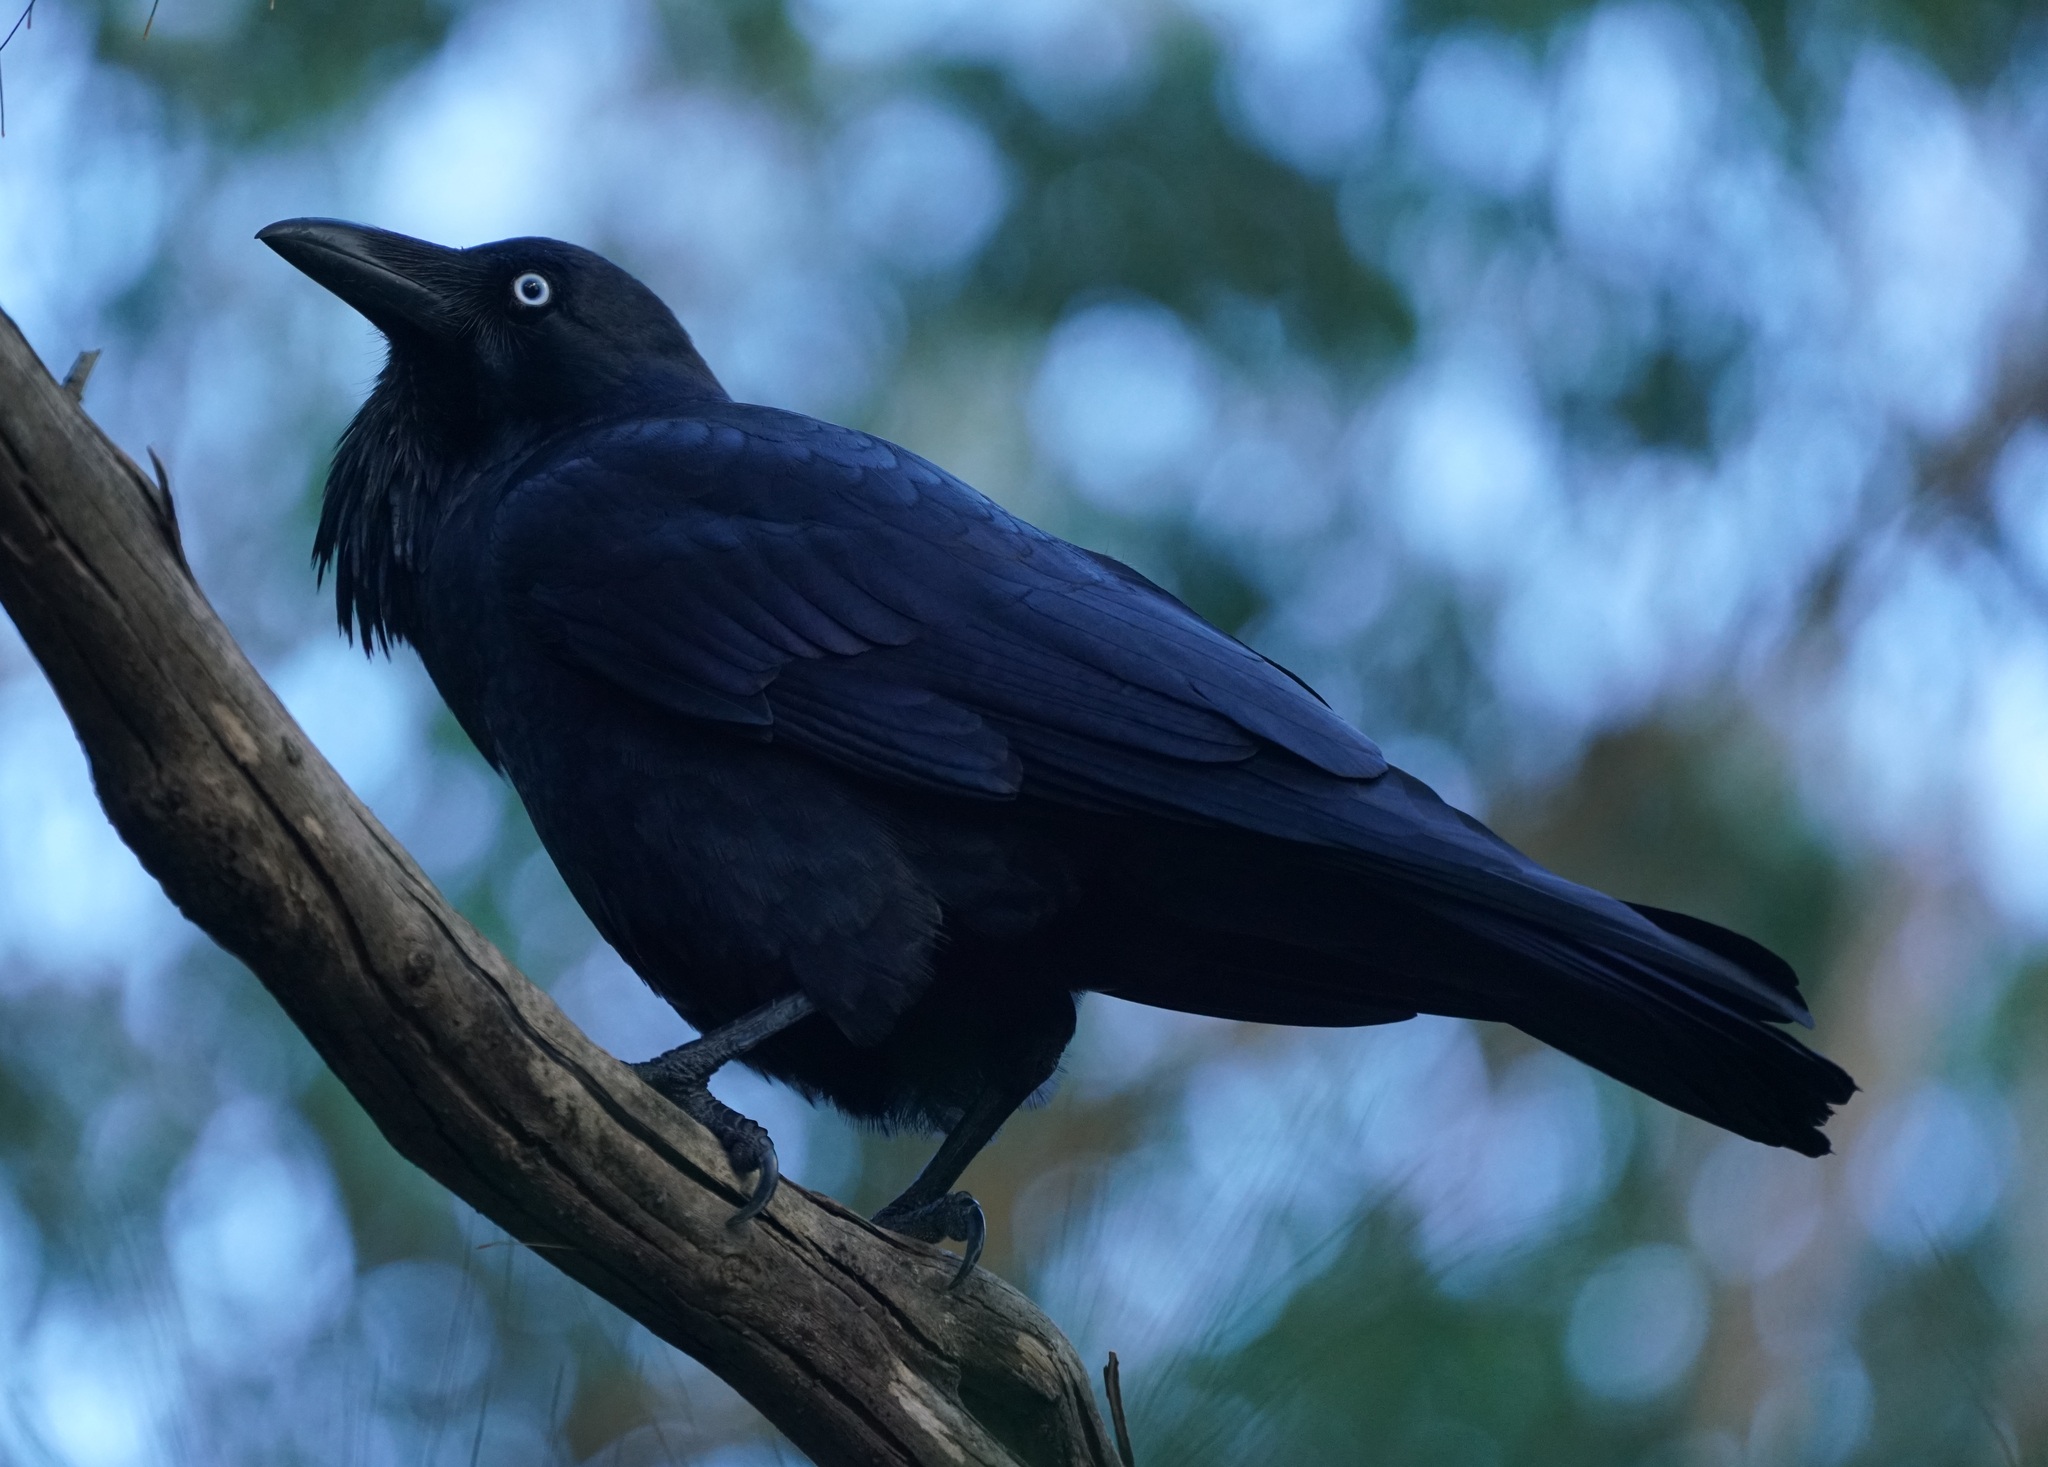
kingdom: Animalia
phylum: Chordata
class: Aves
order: Passeriformes
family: Corvidae
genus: Corvus
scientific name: Corvus coronoides
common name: Australian raven
